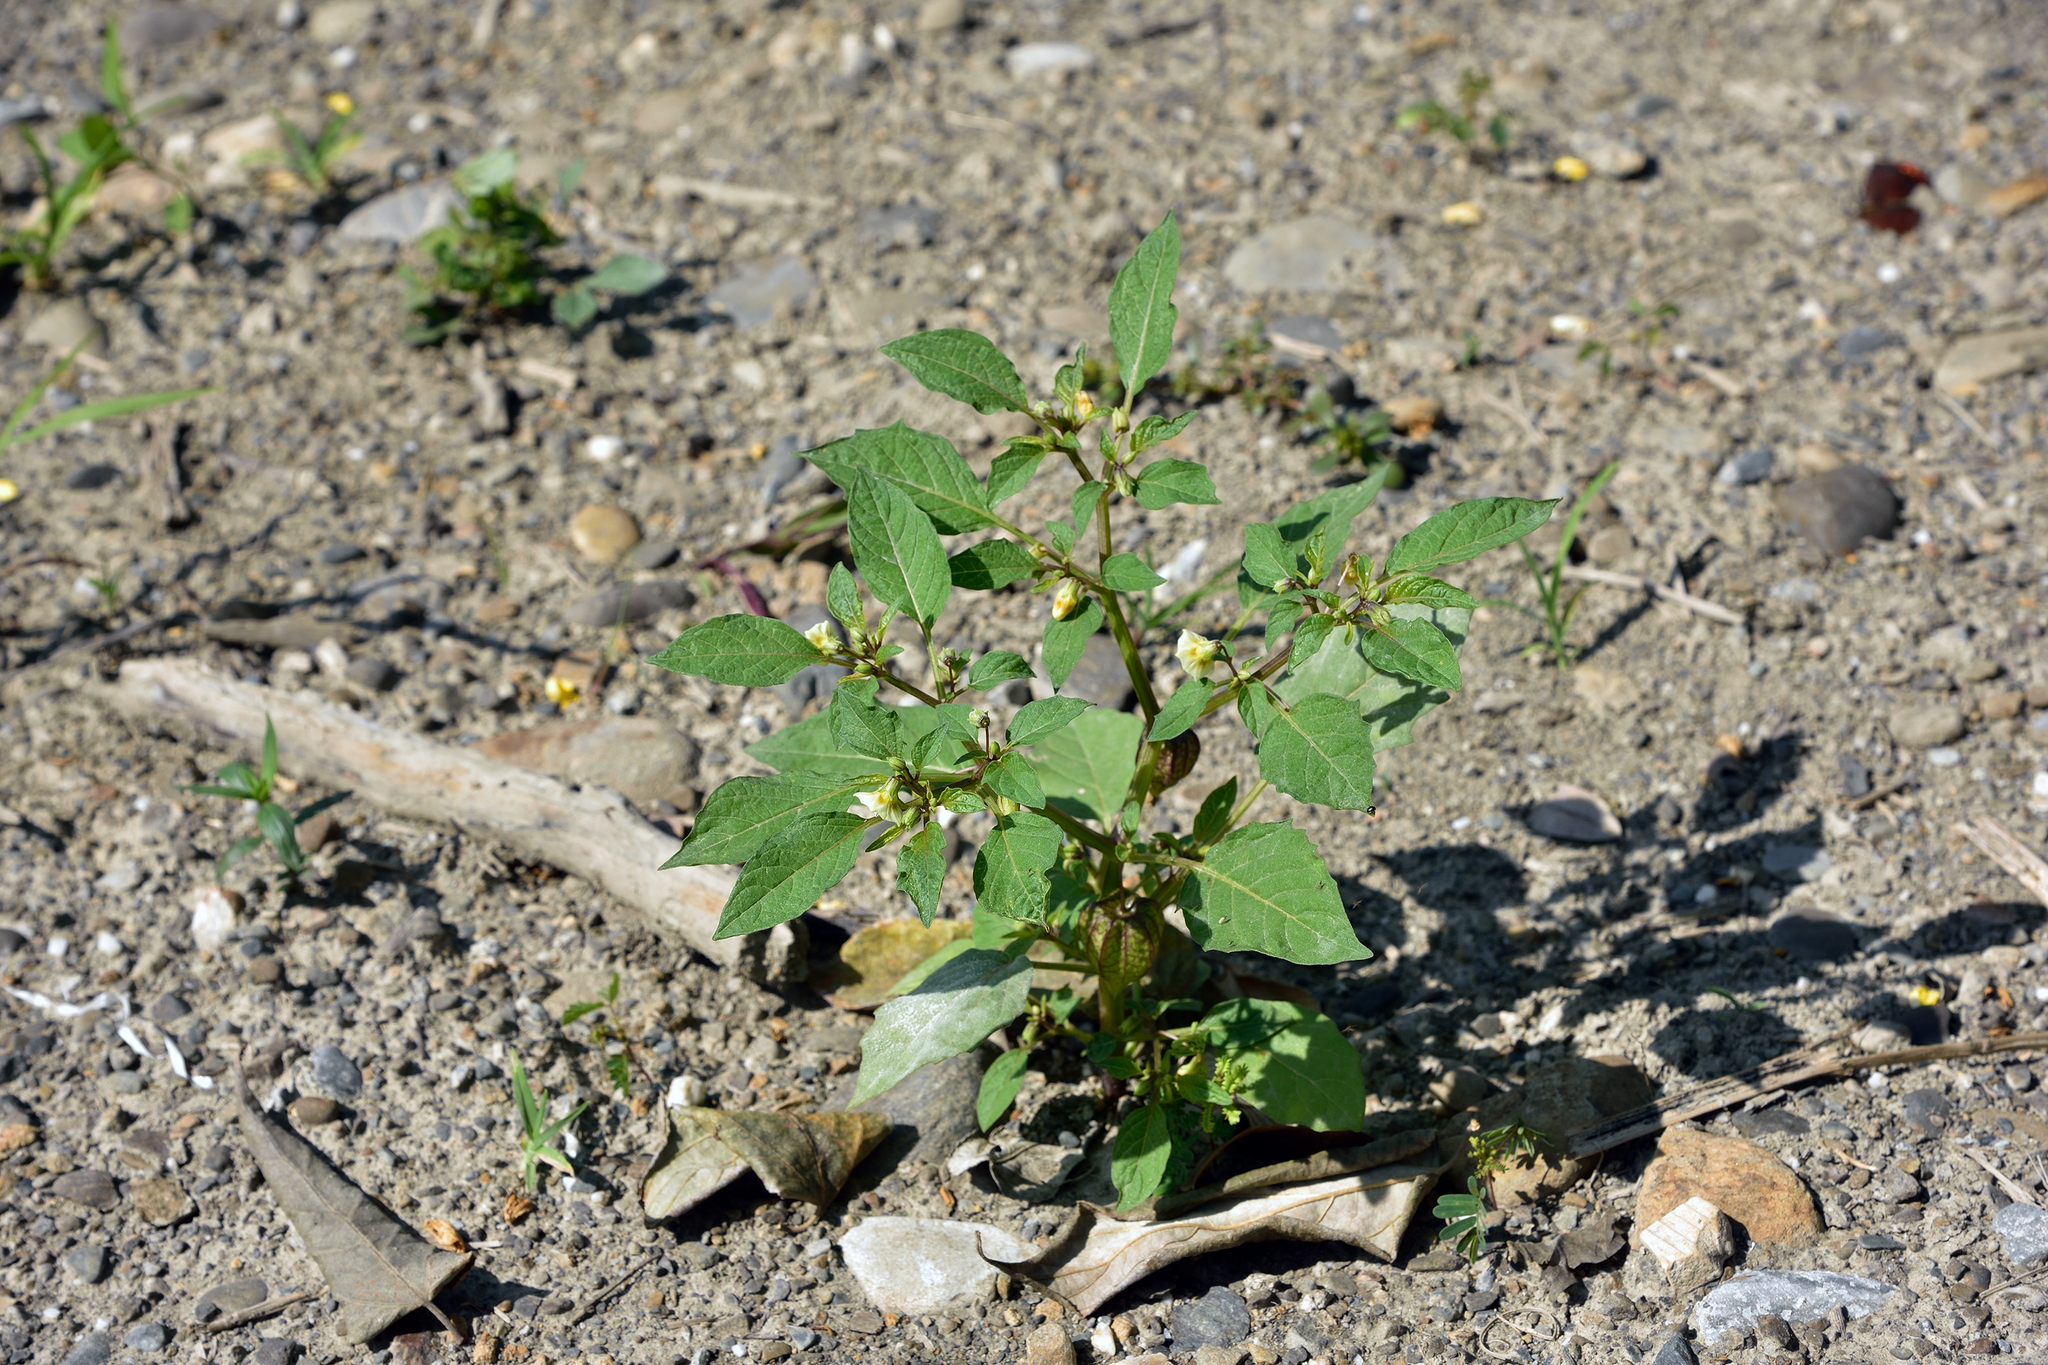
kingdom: Plantae
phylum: Tracheophyta
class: Magnoliopsida
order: Solanales
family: Solanaceae
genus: Physalis
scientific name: Physalis angulata
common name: Angular winter-cherry
